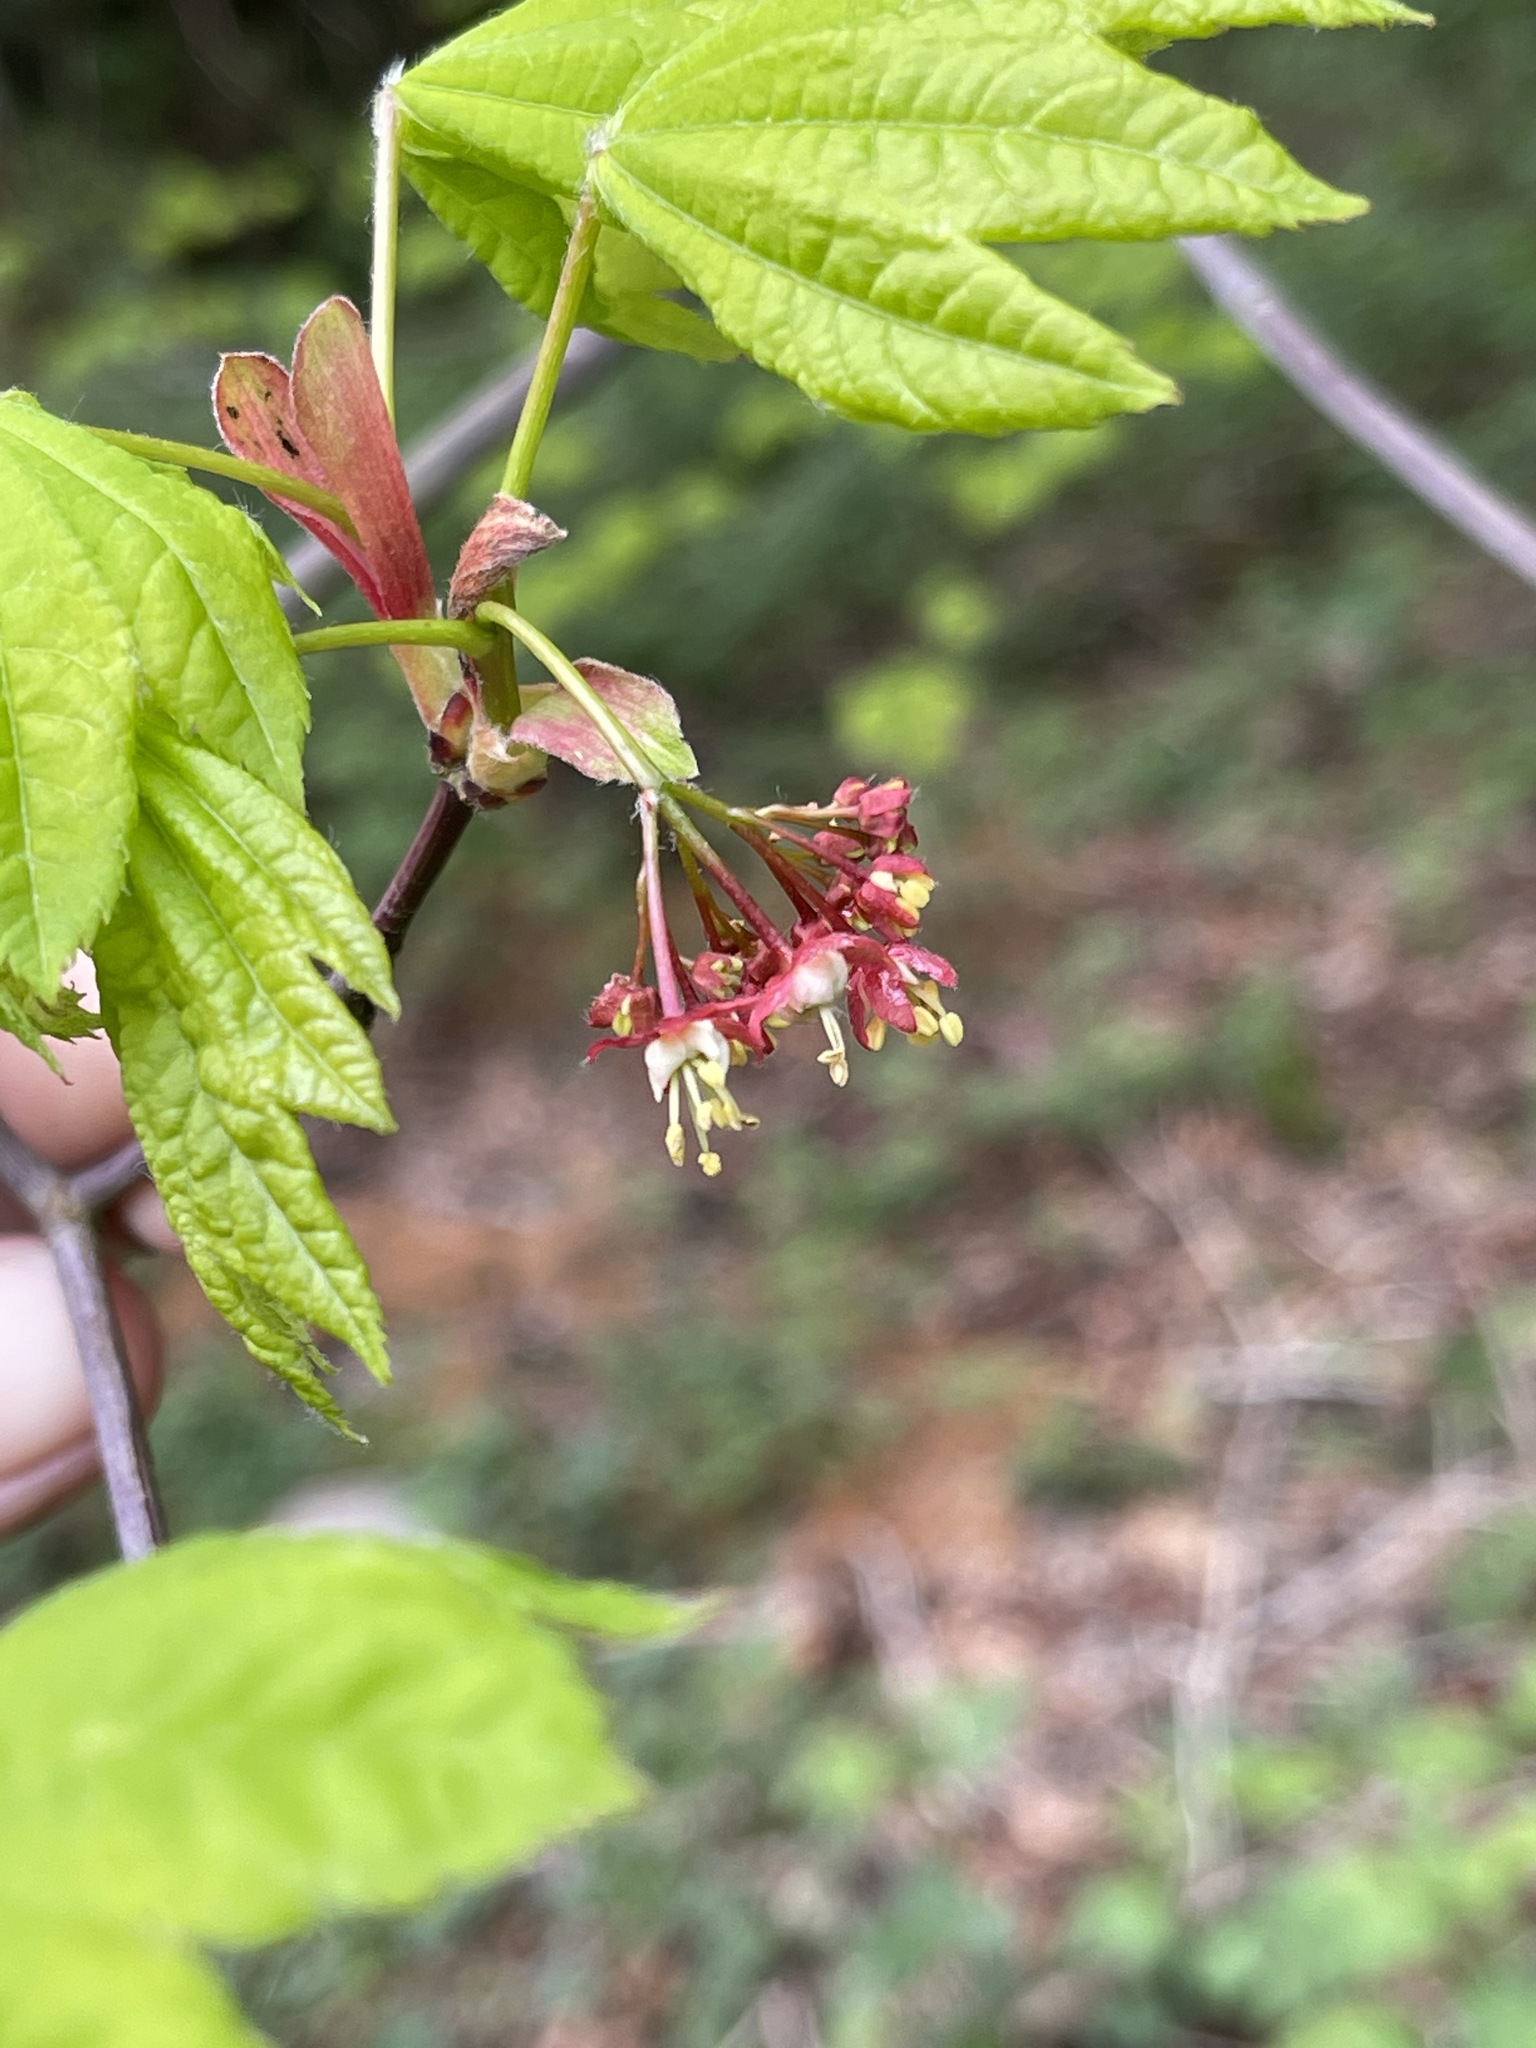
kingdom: Plantae
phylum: Tracheophyta
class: Magnoliopsida
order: Sapindales
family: Sapindaceae
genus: Acer
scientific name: Acer circinatum
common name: Vine maple
